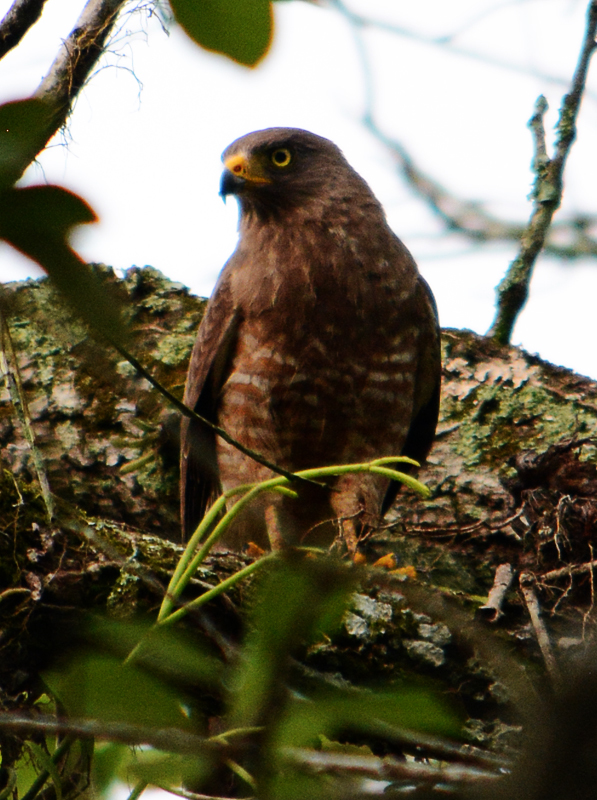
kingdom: Animalia
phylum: Chordata
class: Aves
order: Accipitriformes
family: Accipitridae
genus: Rupornis
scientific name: Rupornis magnirostris
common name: Roadside hawk
